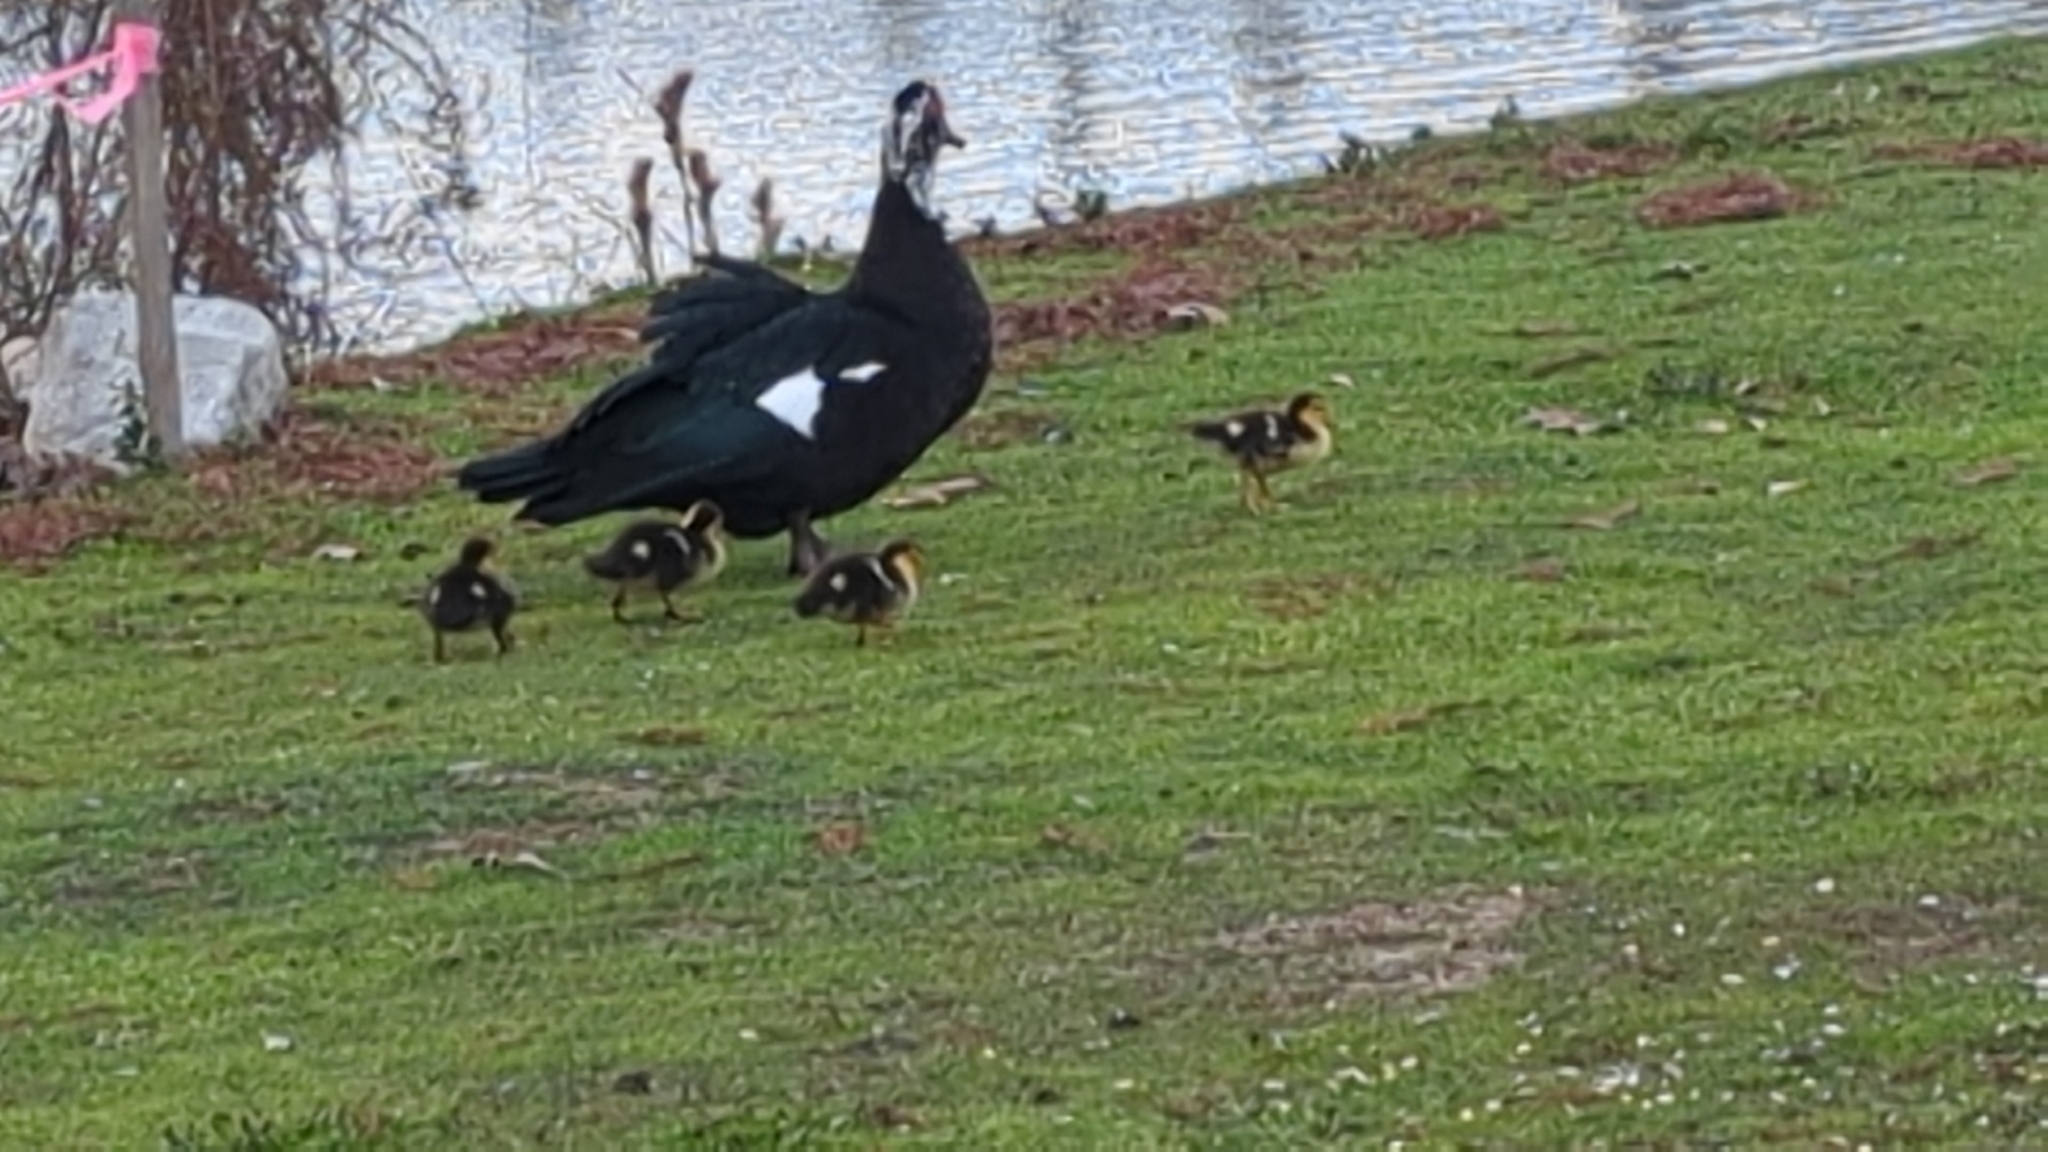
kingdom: Animalia
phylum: Chordata
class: Aves
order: Anseriformes
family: Anatidae
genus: Cairina
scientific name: Cairina moschata
